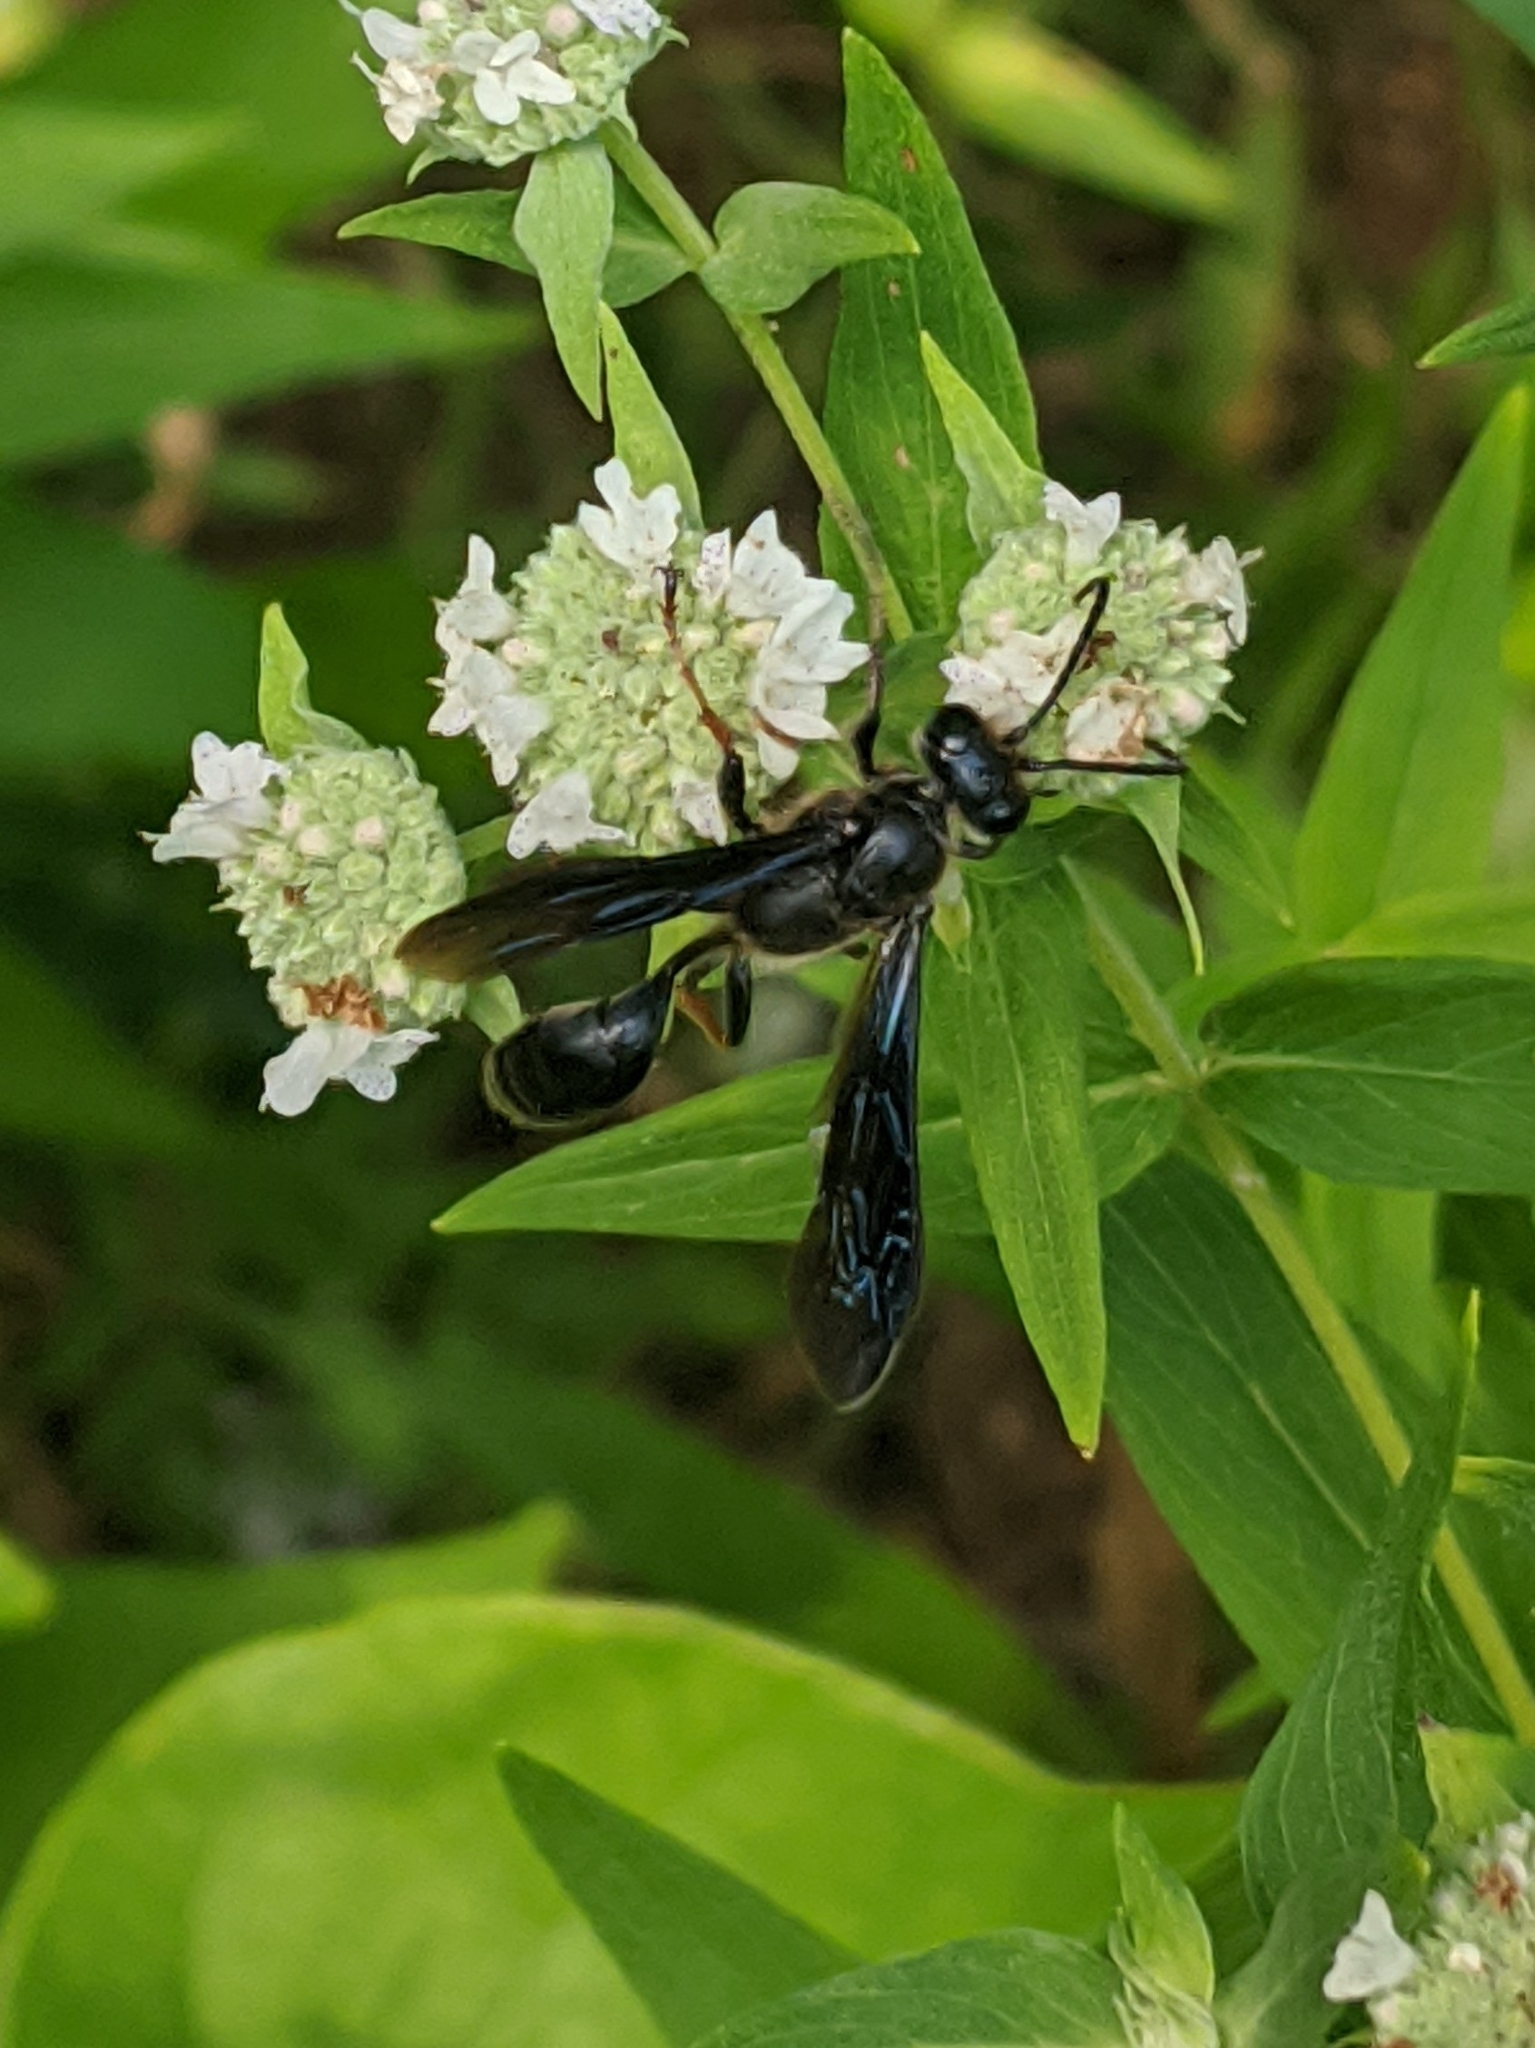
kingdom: Animalia
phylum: Arthropoda
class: Insecta
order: Hymenoptera
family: Sphecidae
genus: Isodontia
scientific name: Isodontia auripes
